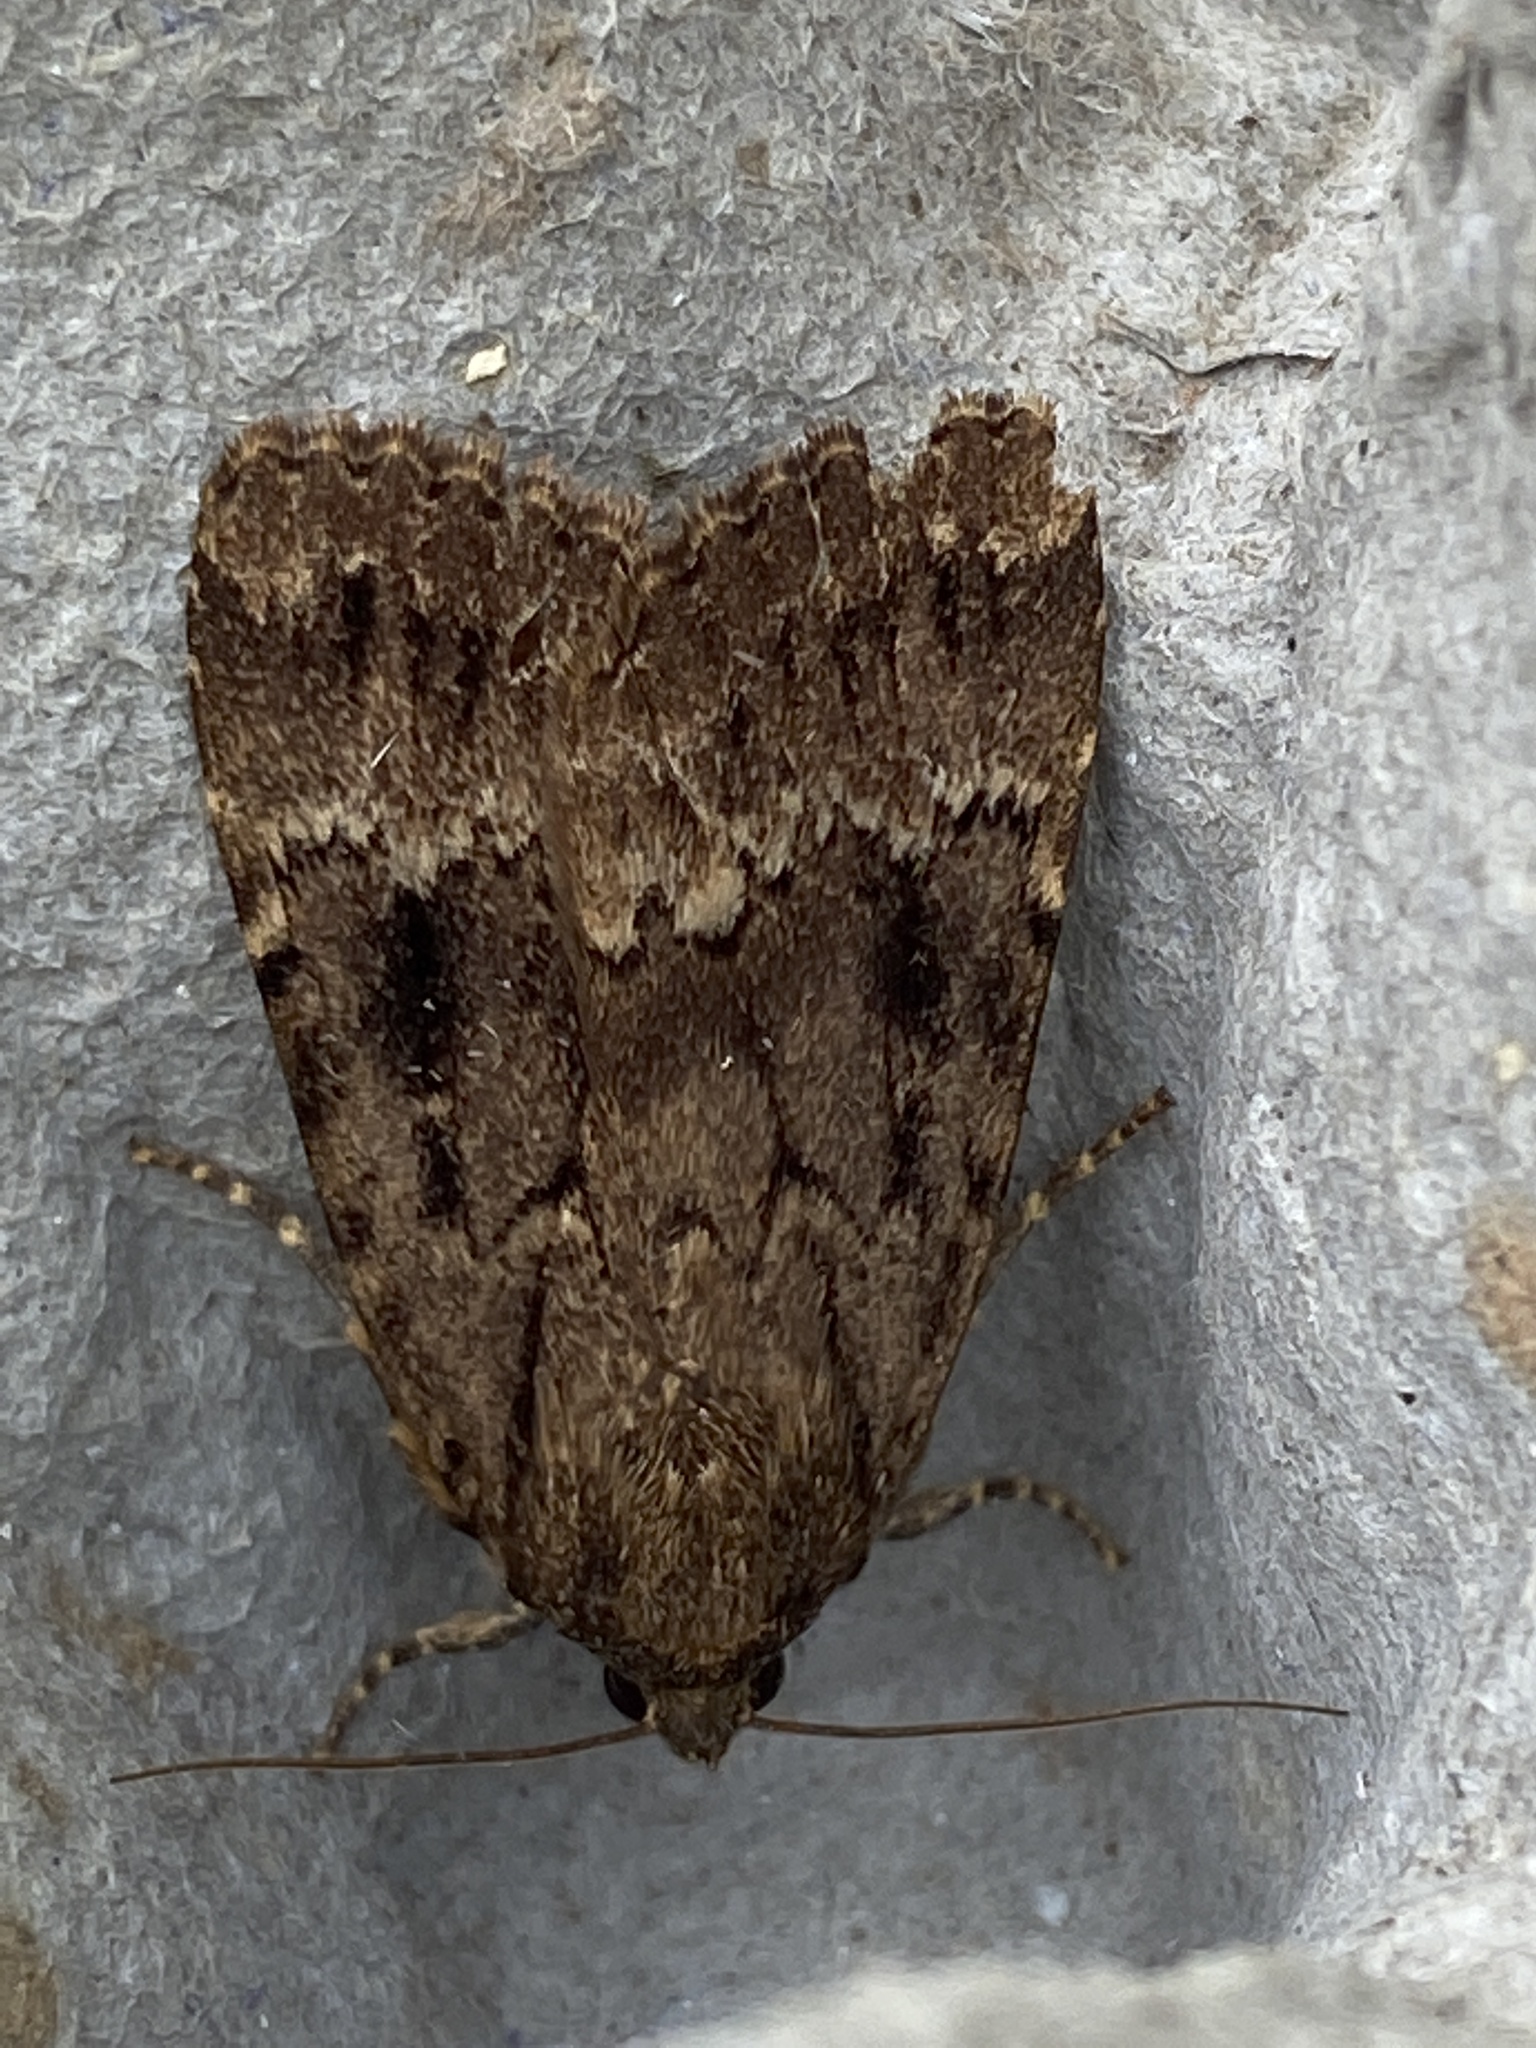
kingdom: Animalia
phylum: Arthropoda
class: Insecta
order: Lepidoptera
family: Noctuidae
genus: Amphipyra
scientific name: Amphipyra
